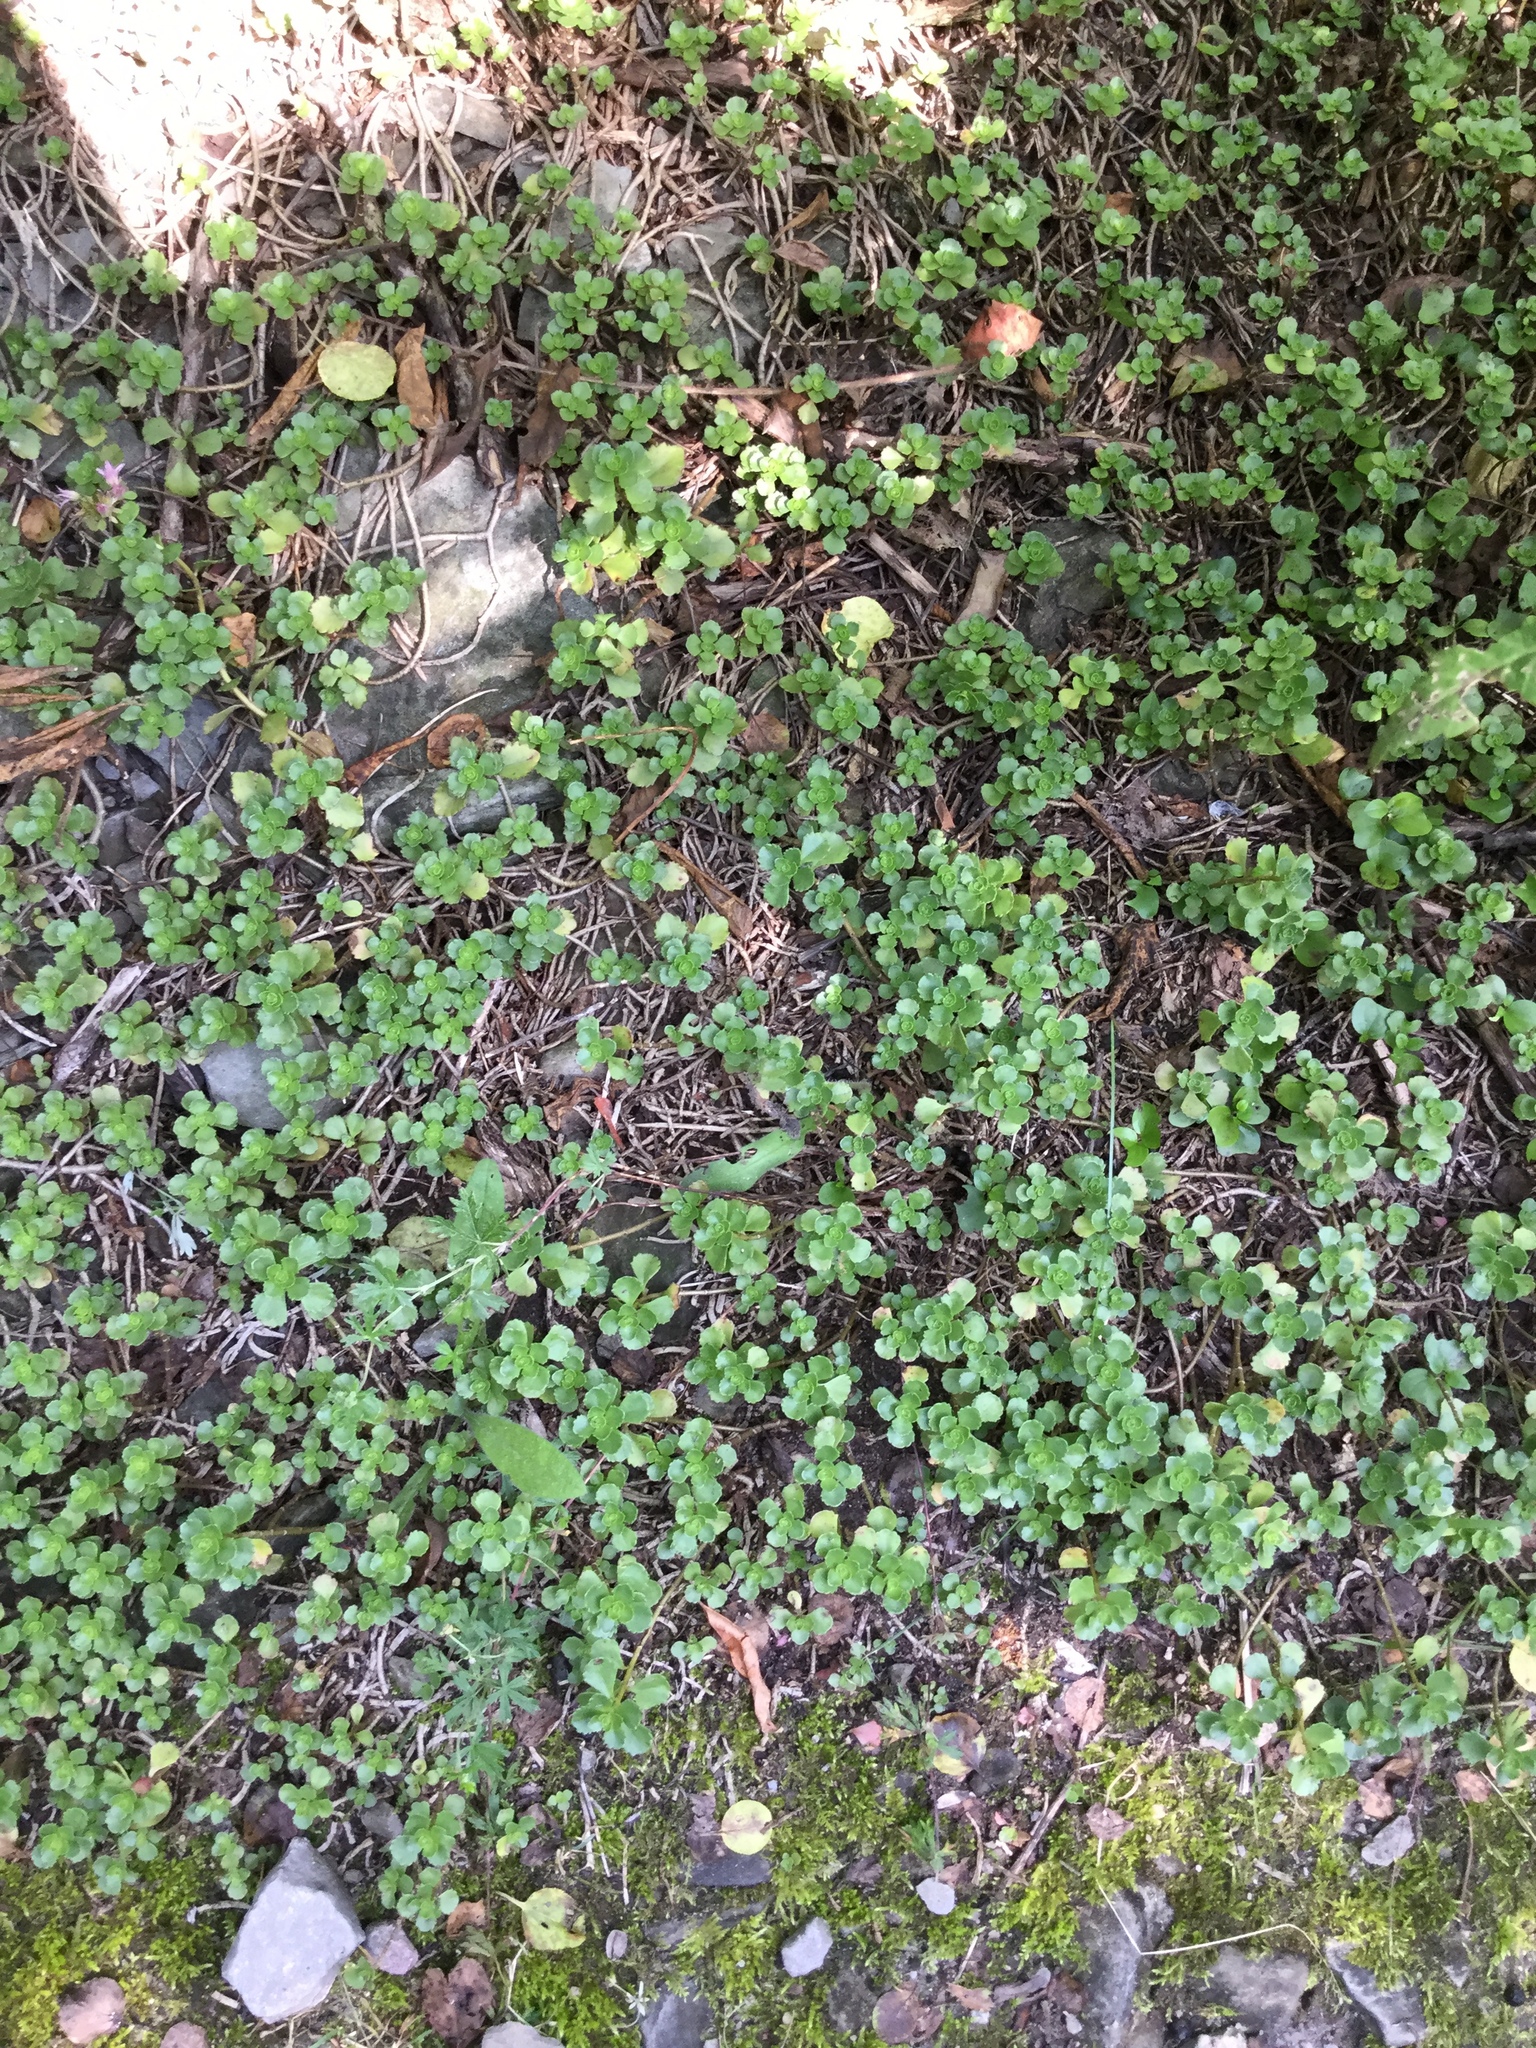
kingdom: Plantae
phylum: Tracheophyta
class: Magnoliopsida
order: Saxifragales
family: Crassulaceae
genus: Phedimus
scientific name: Phedimus spurius
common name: Caucasian stonecrop
